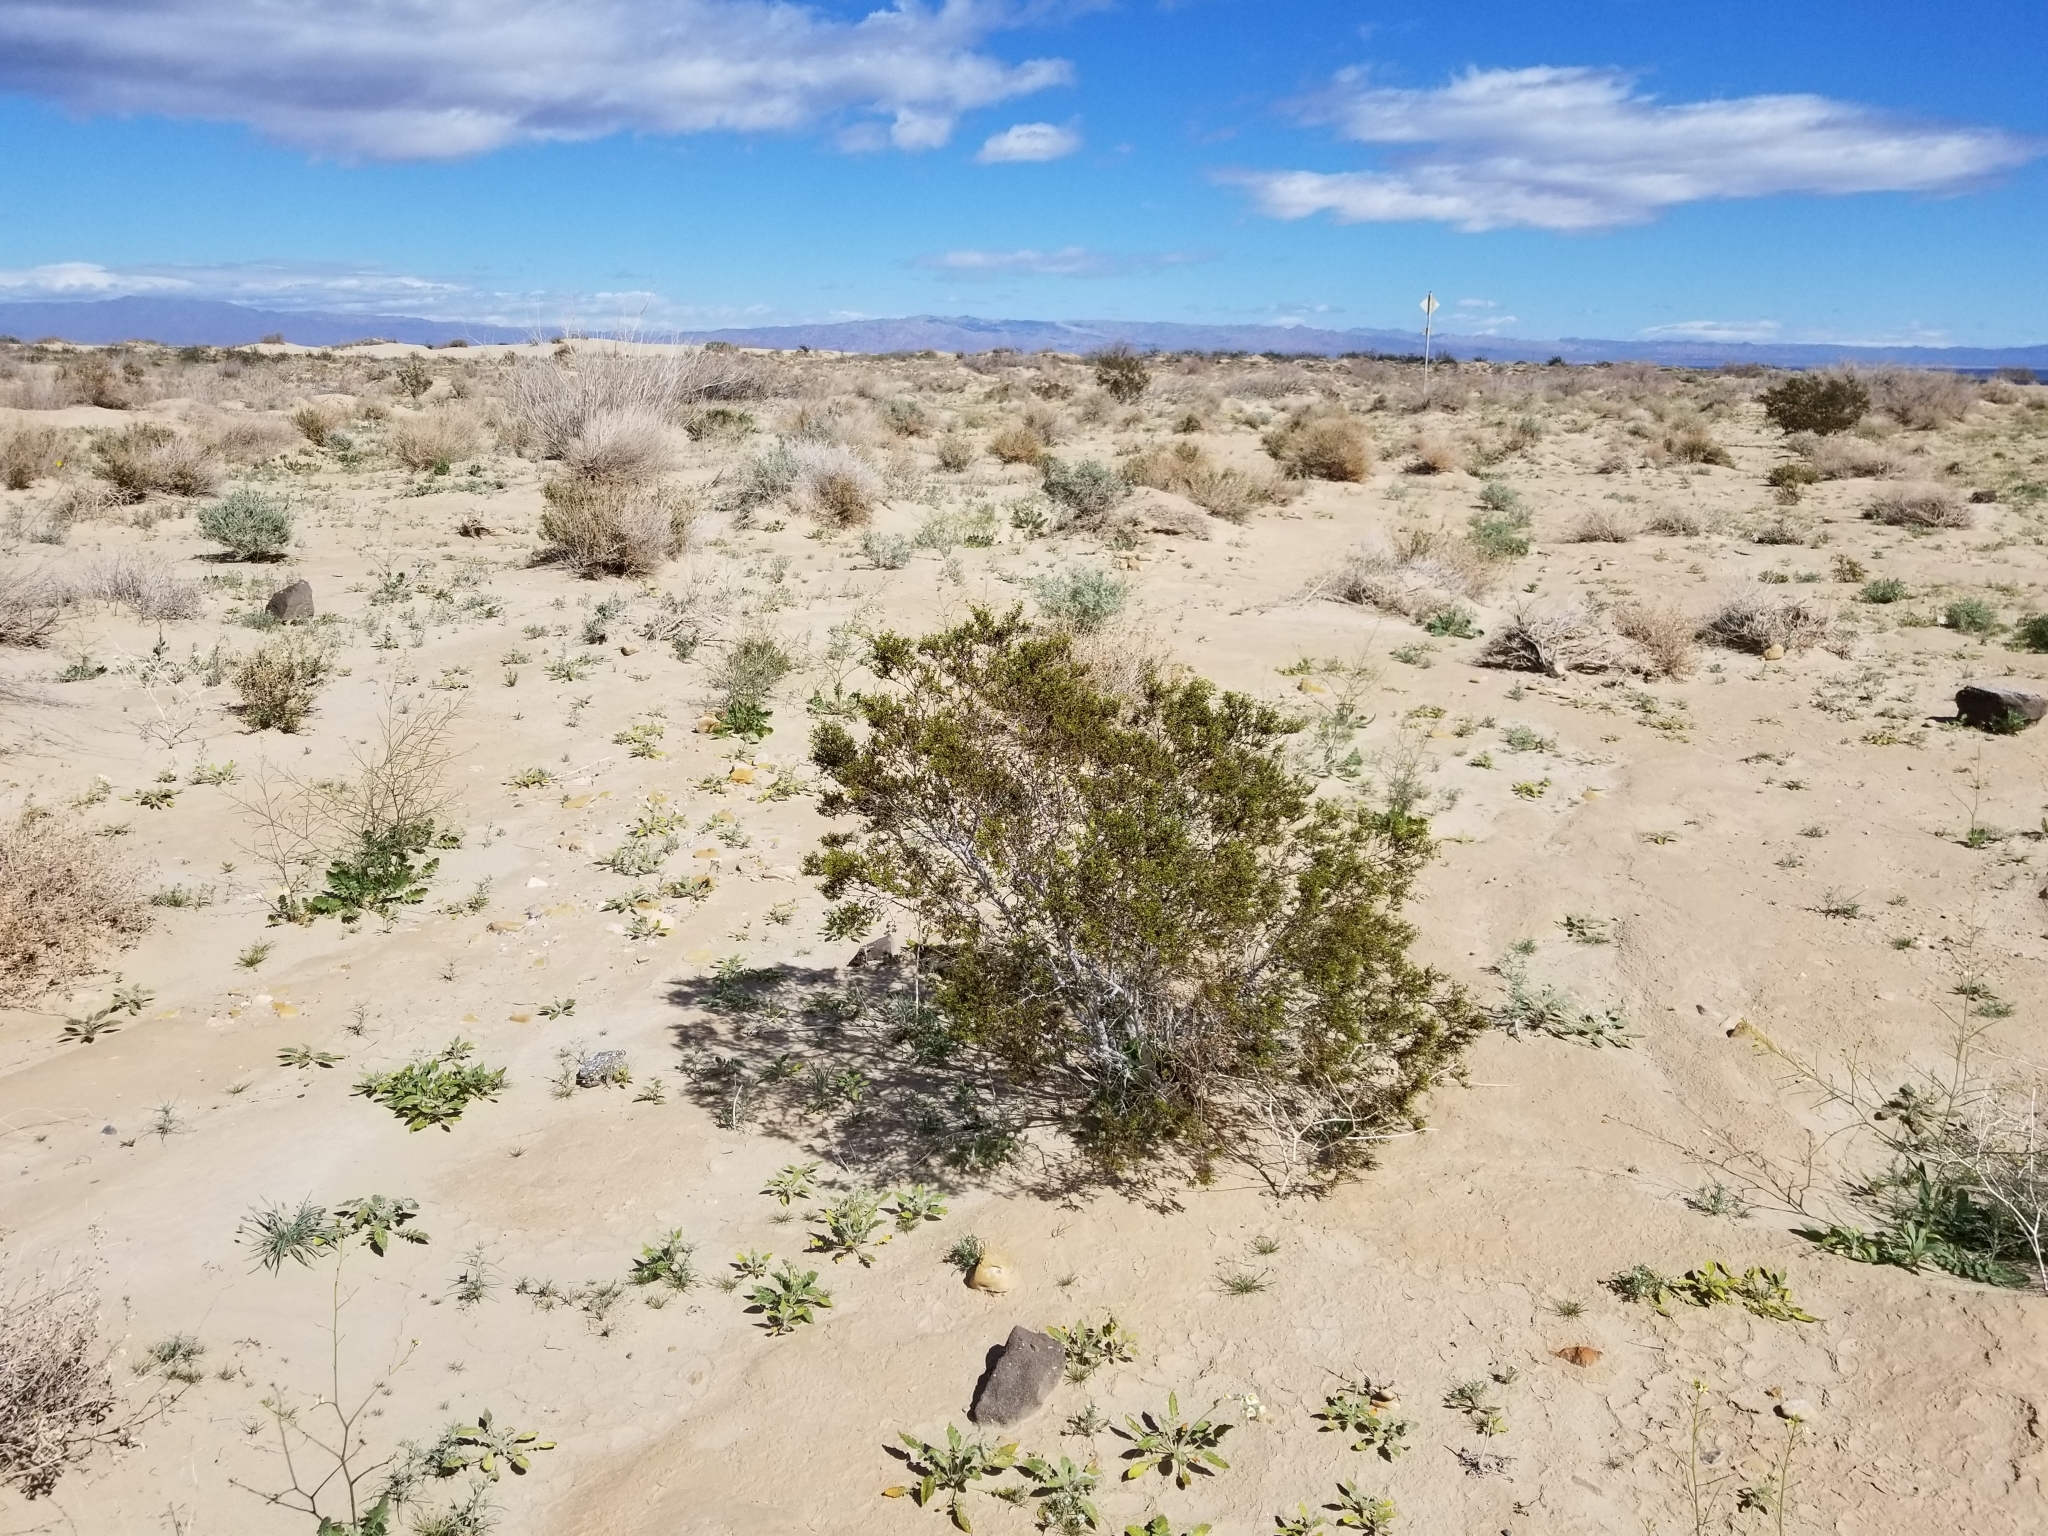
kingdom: Plantae
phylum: Tracheophyta
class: Magnoliopsida
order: Zygophyllales
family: Zygophyllaceae
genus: Larrea
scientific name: Larrea tridentata
